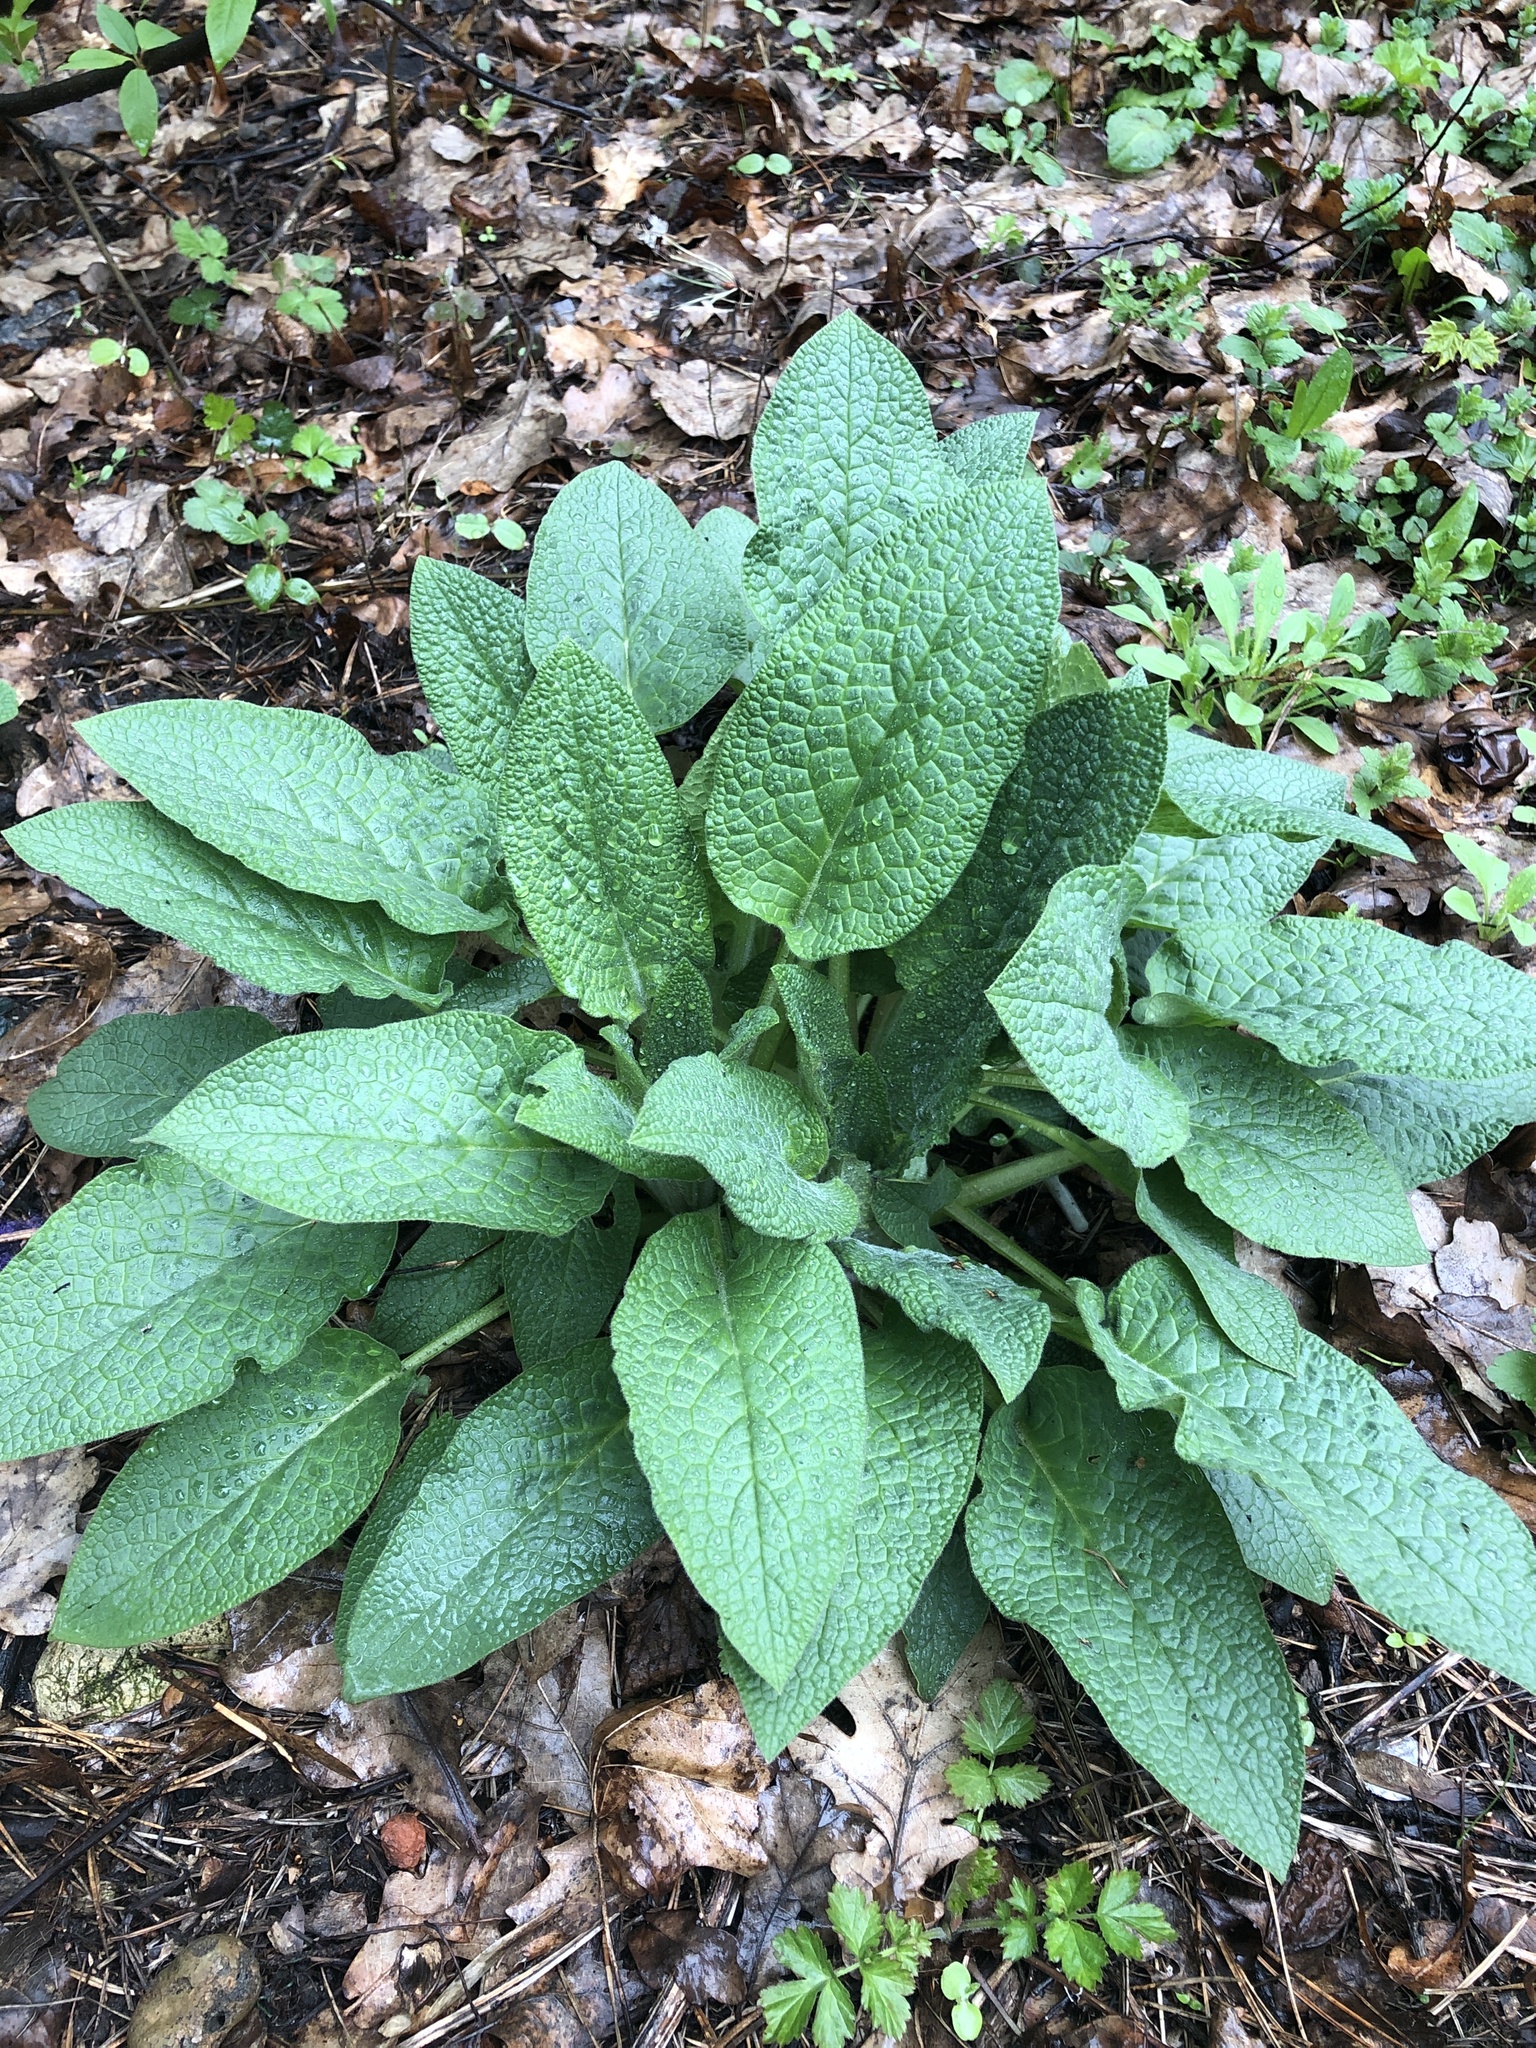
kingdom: Plantae
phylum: Tracheophyta
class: Magnoliopsida
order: Boraginales
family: Boraginaceae
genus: Symphytum
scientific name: Symphytum caucasicum
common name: Caucasian comfrey
